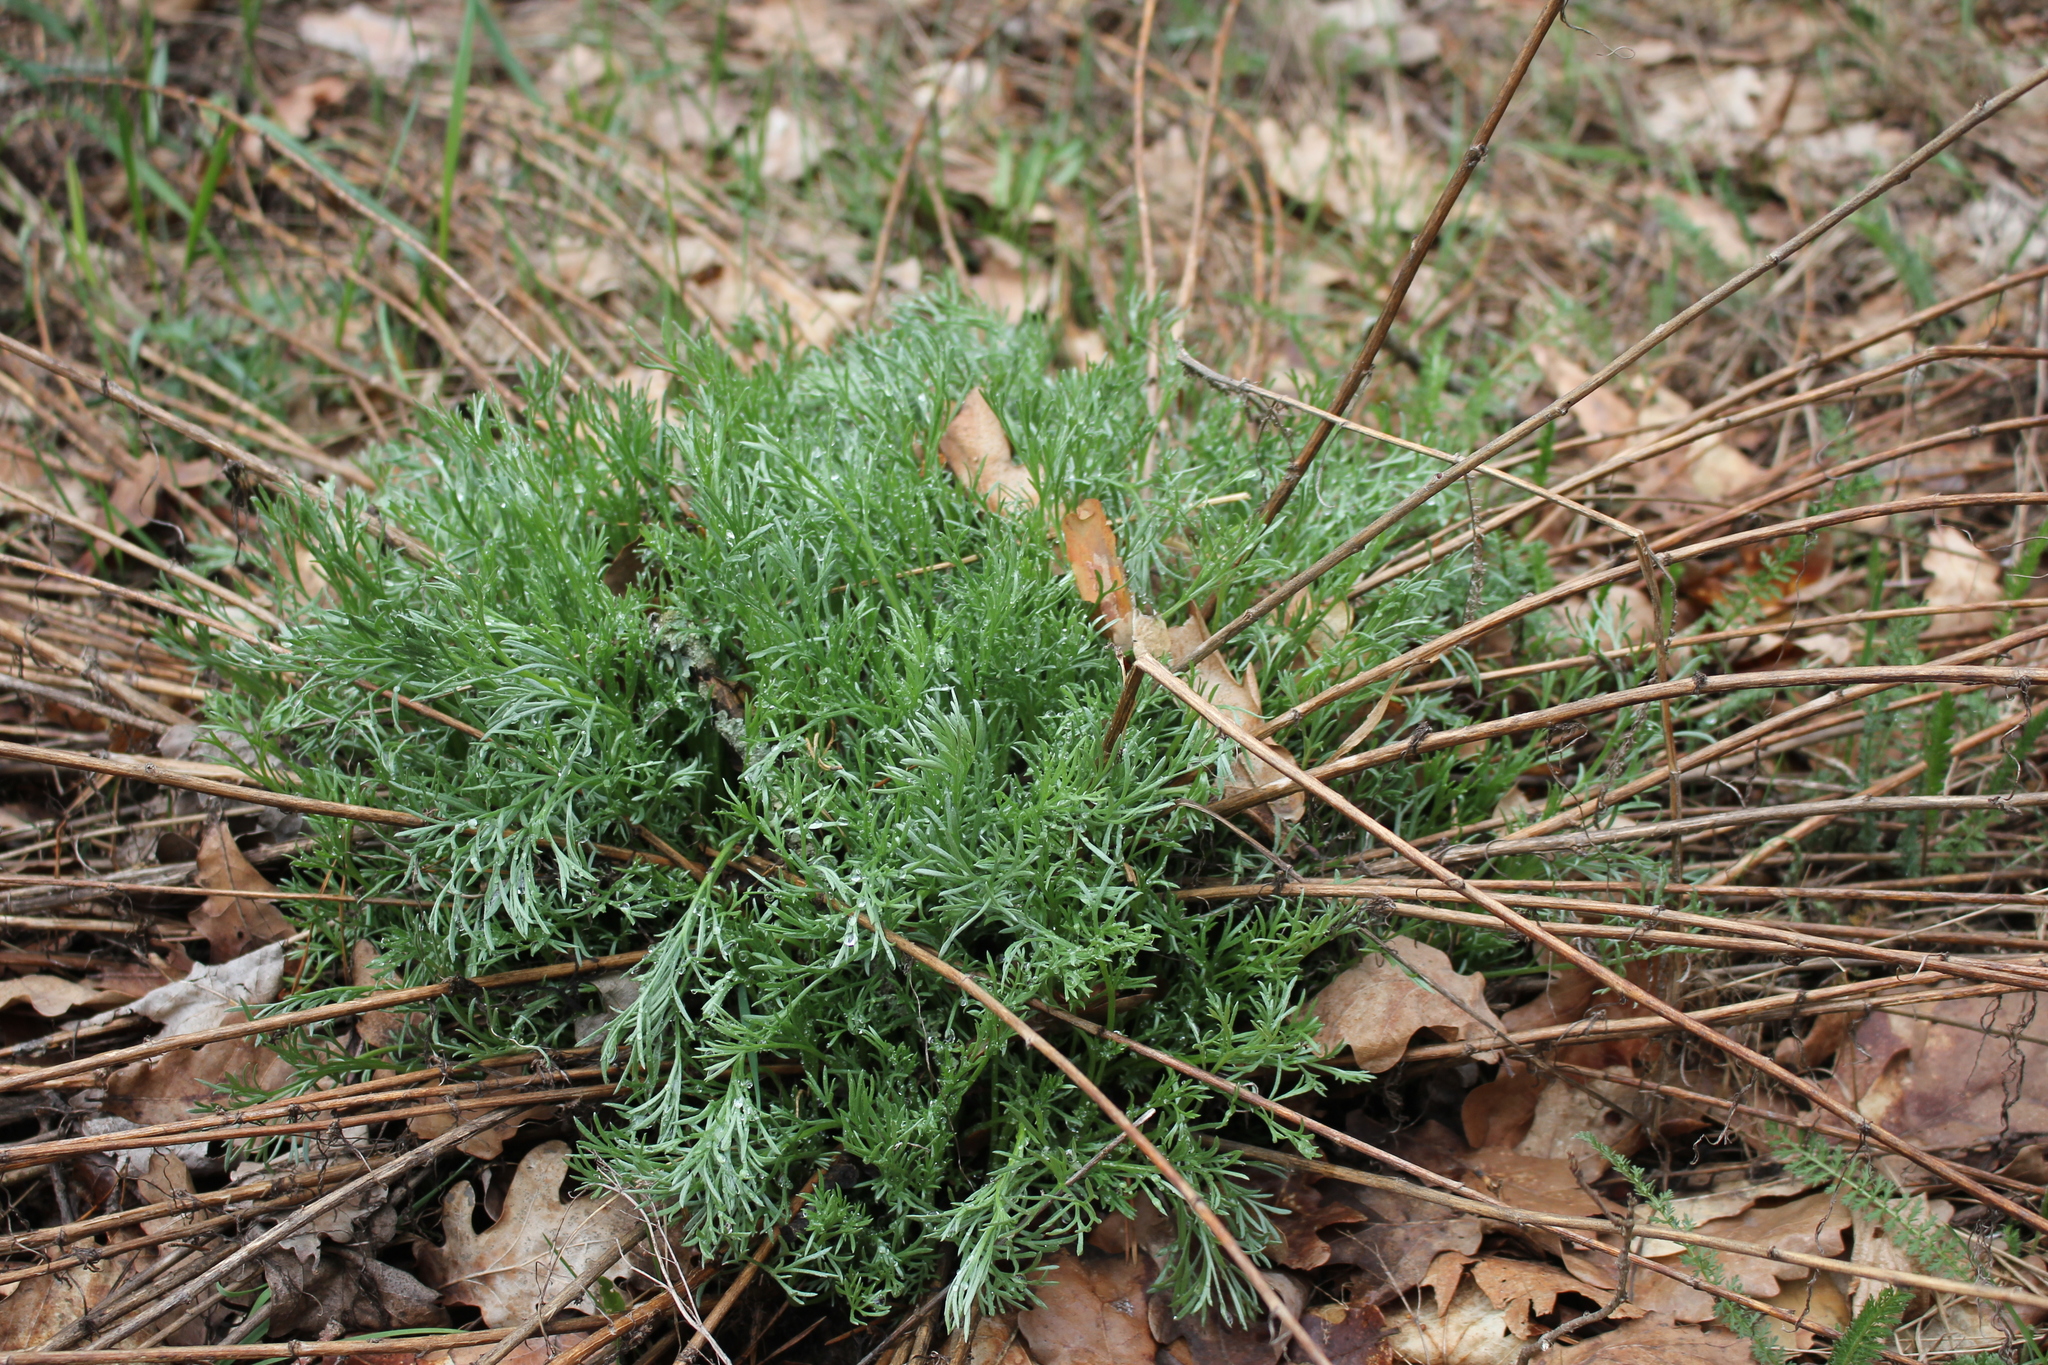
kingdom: Plantae
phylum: Tracheophyta
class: Magnoliopsida
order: Asterales
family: Asteraceae
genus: Artemisia
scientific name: Artemisia campestris
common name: Field wormwood
